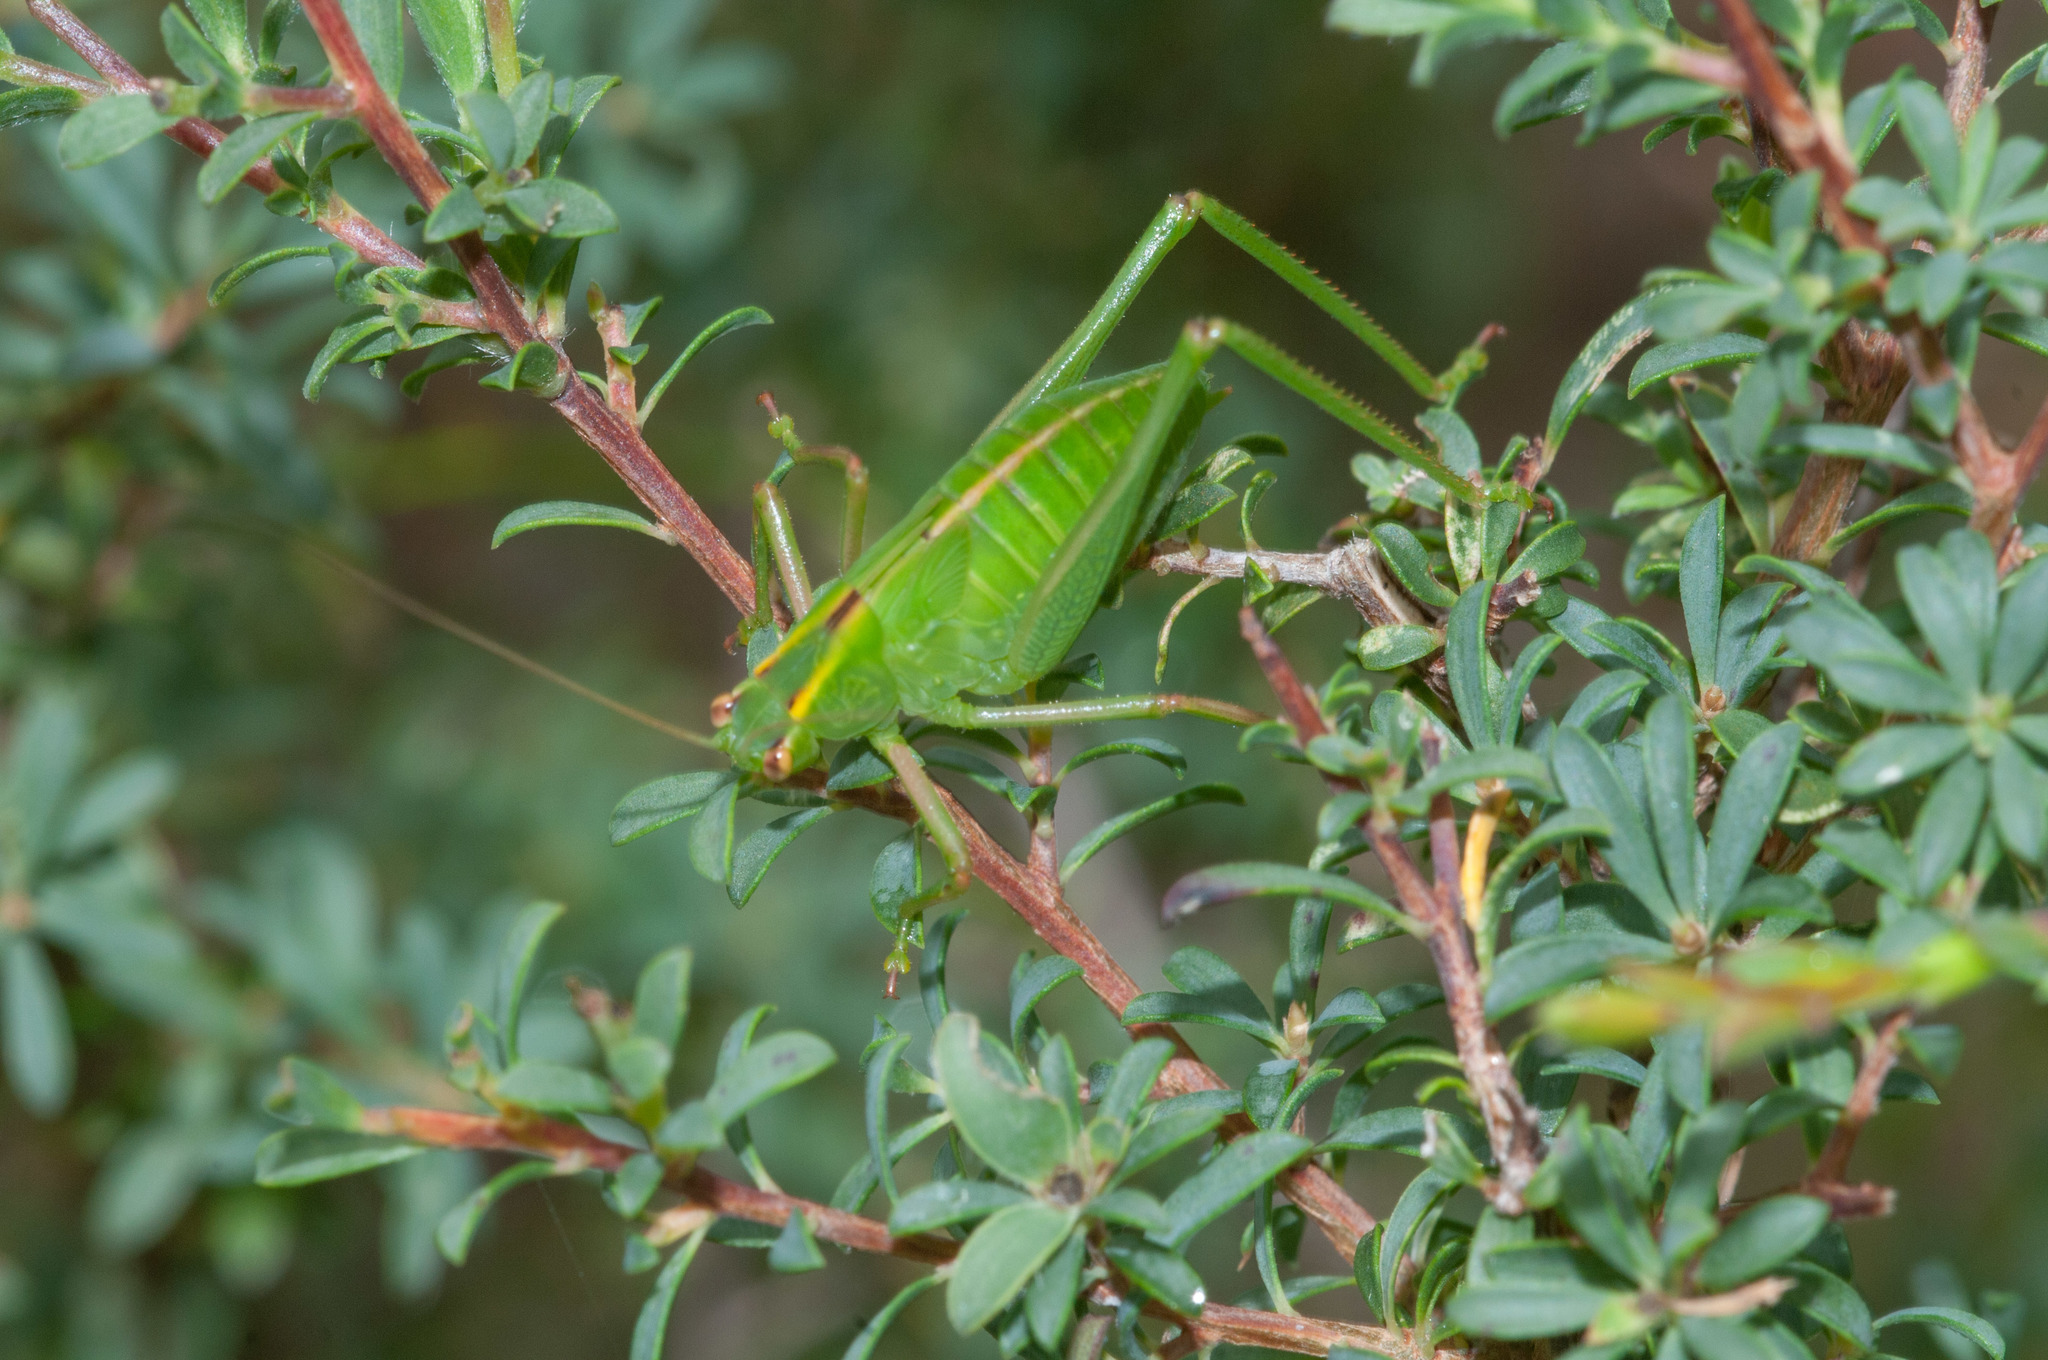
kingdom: Animalia
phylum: Arthropoda
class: Insecta
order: Orthoptera
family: Tettigoniidae
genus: Caedicia
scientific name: Caedicia simplex
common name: Common garden katydid
